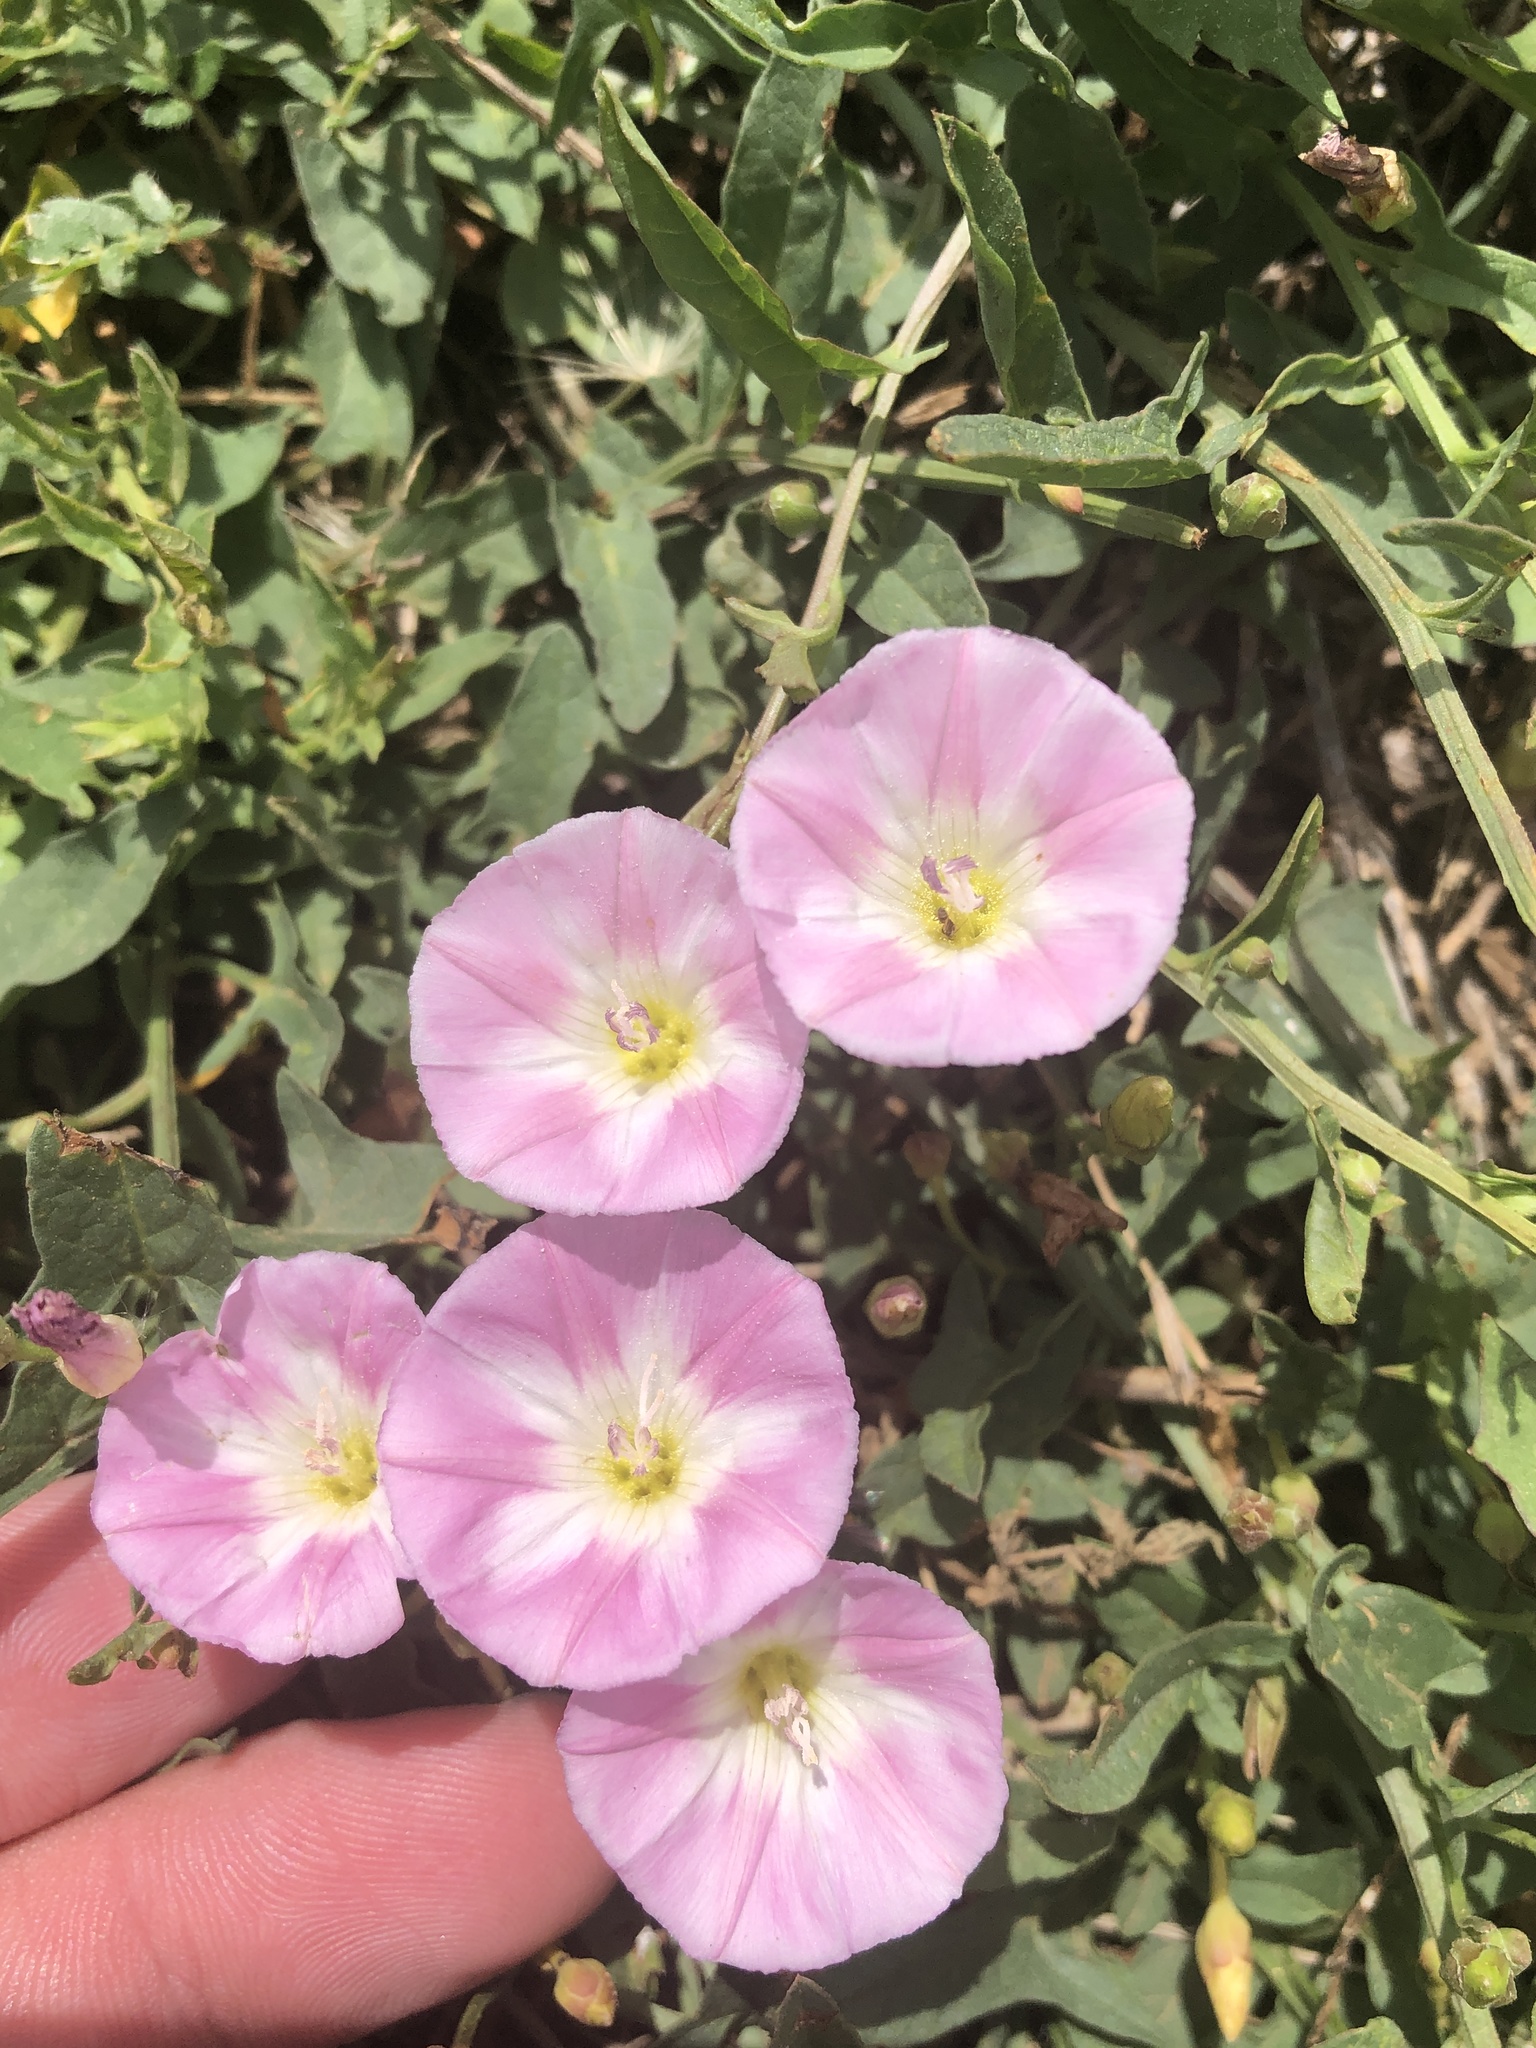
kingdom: Plantae
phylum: Tracheophyta
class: Magnoliopsida
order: Solanales
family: Convolvulaceae
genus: Convolvulus
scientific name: Convolvulus arvensis
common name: Field bindweed
